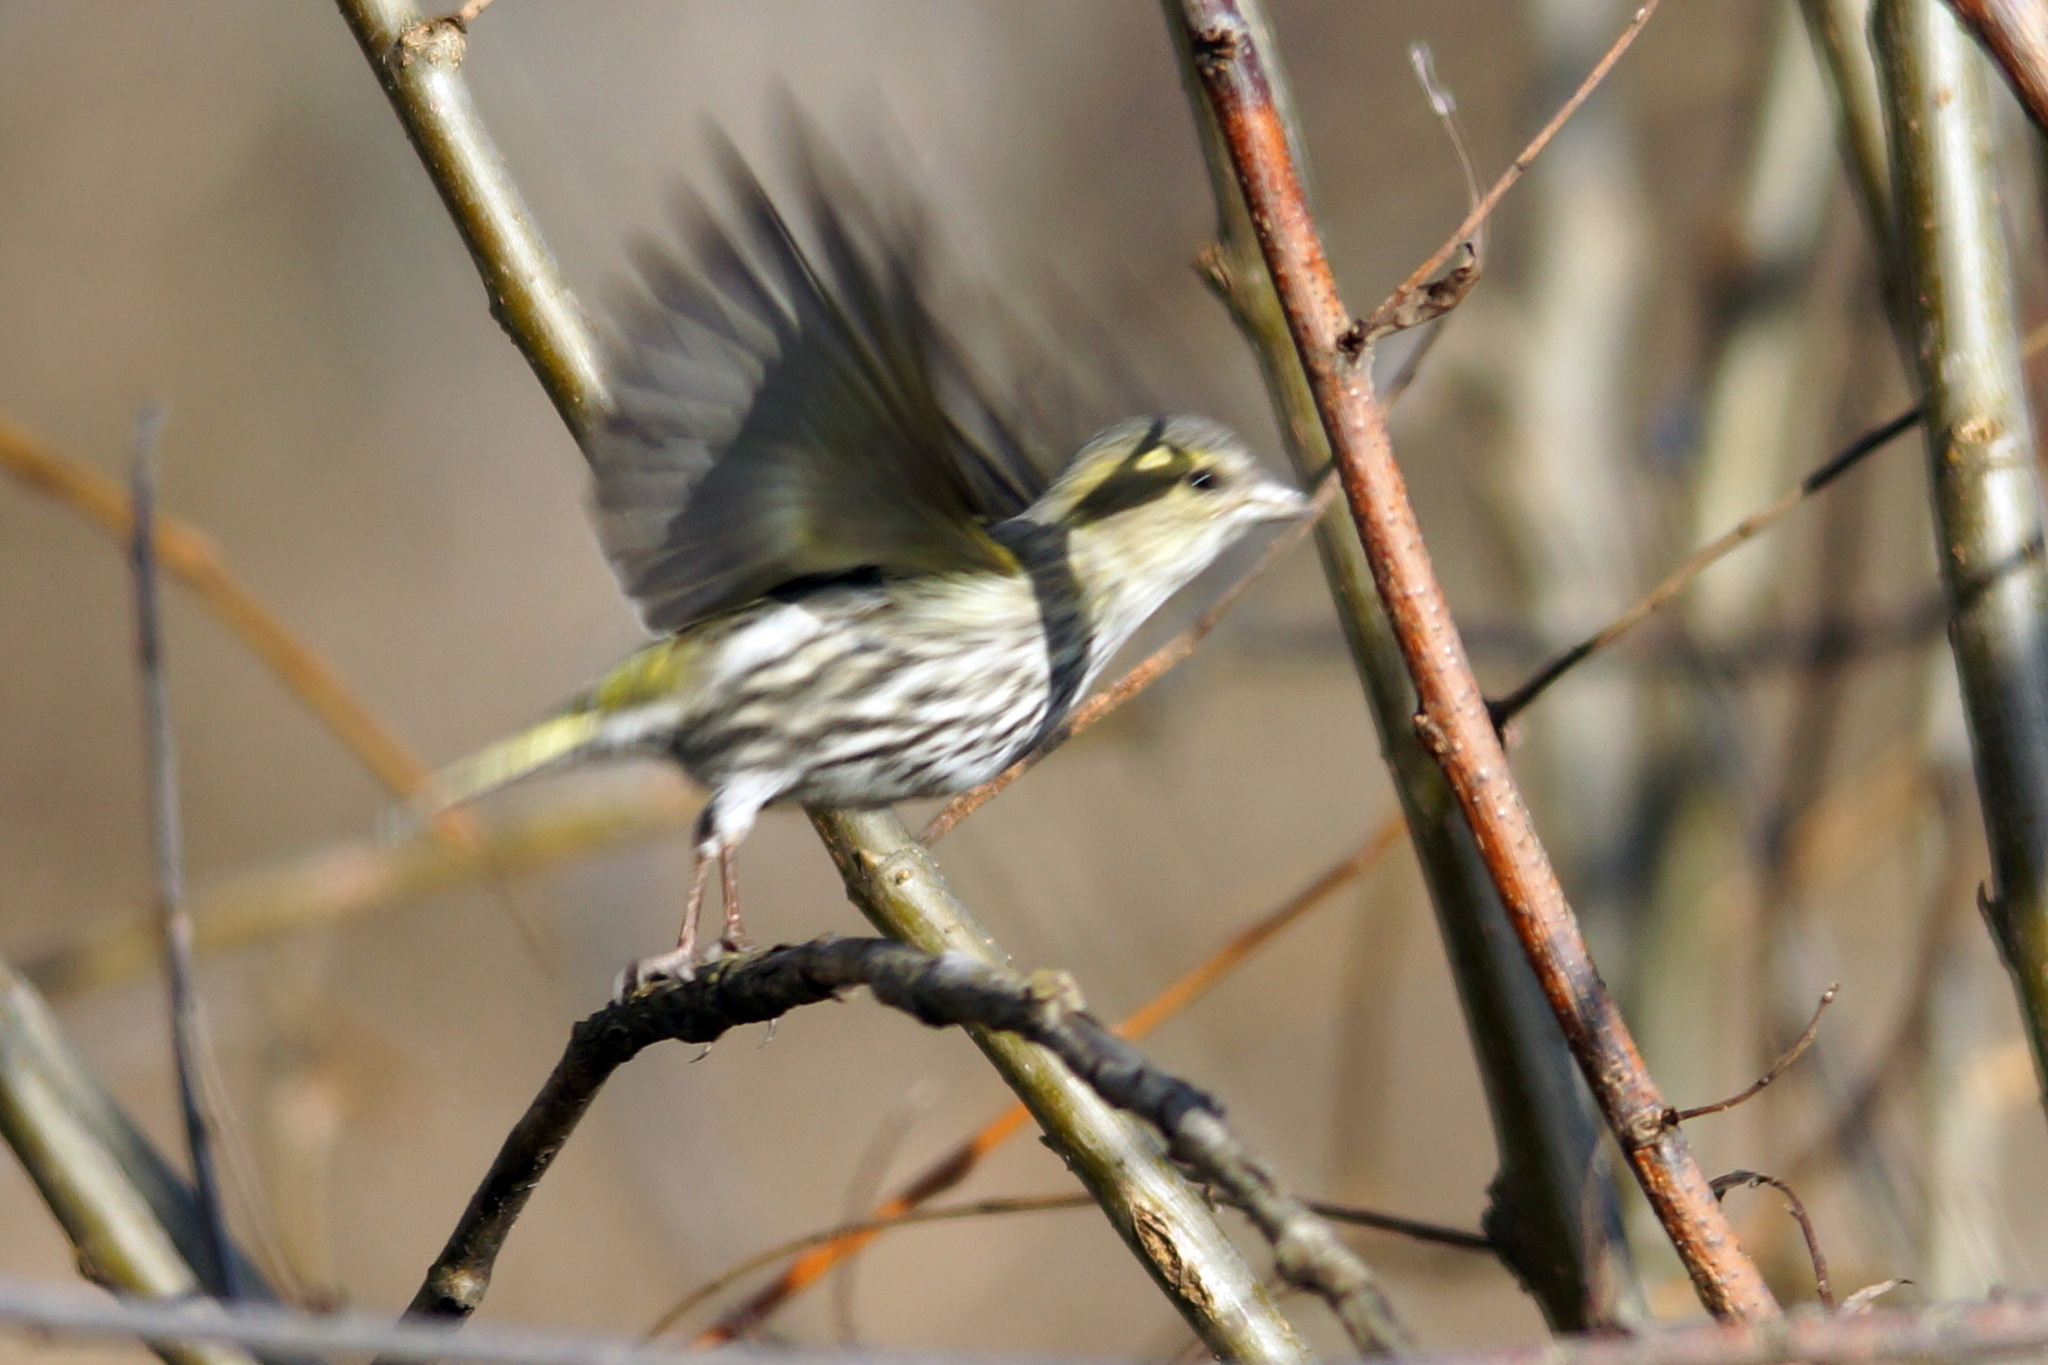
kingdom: Animalia
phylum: Chordata
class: Aves
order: Passeriformes
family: Fringillidae
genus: Spinus
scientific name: Spinus spinus
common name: Eurasian siskin
